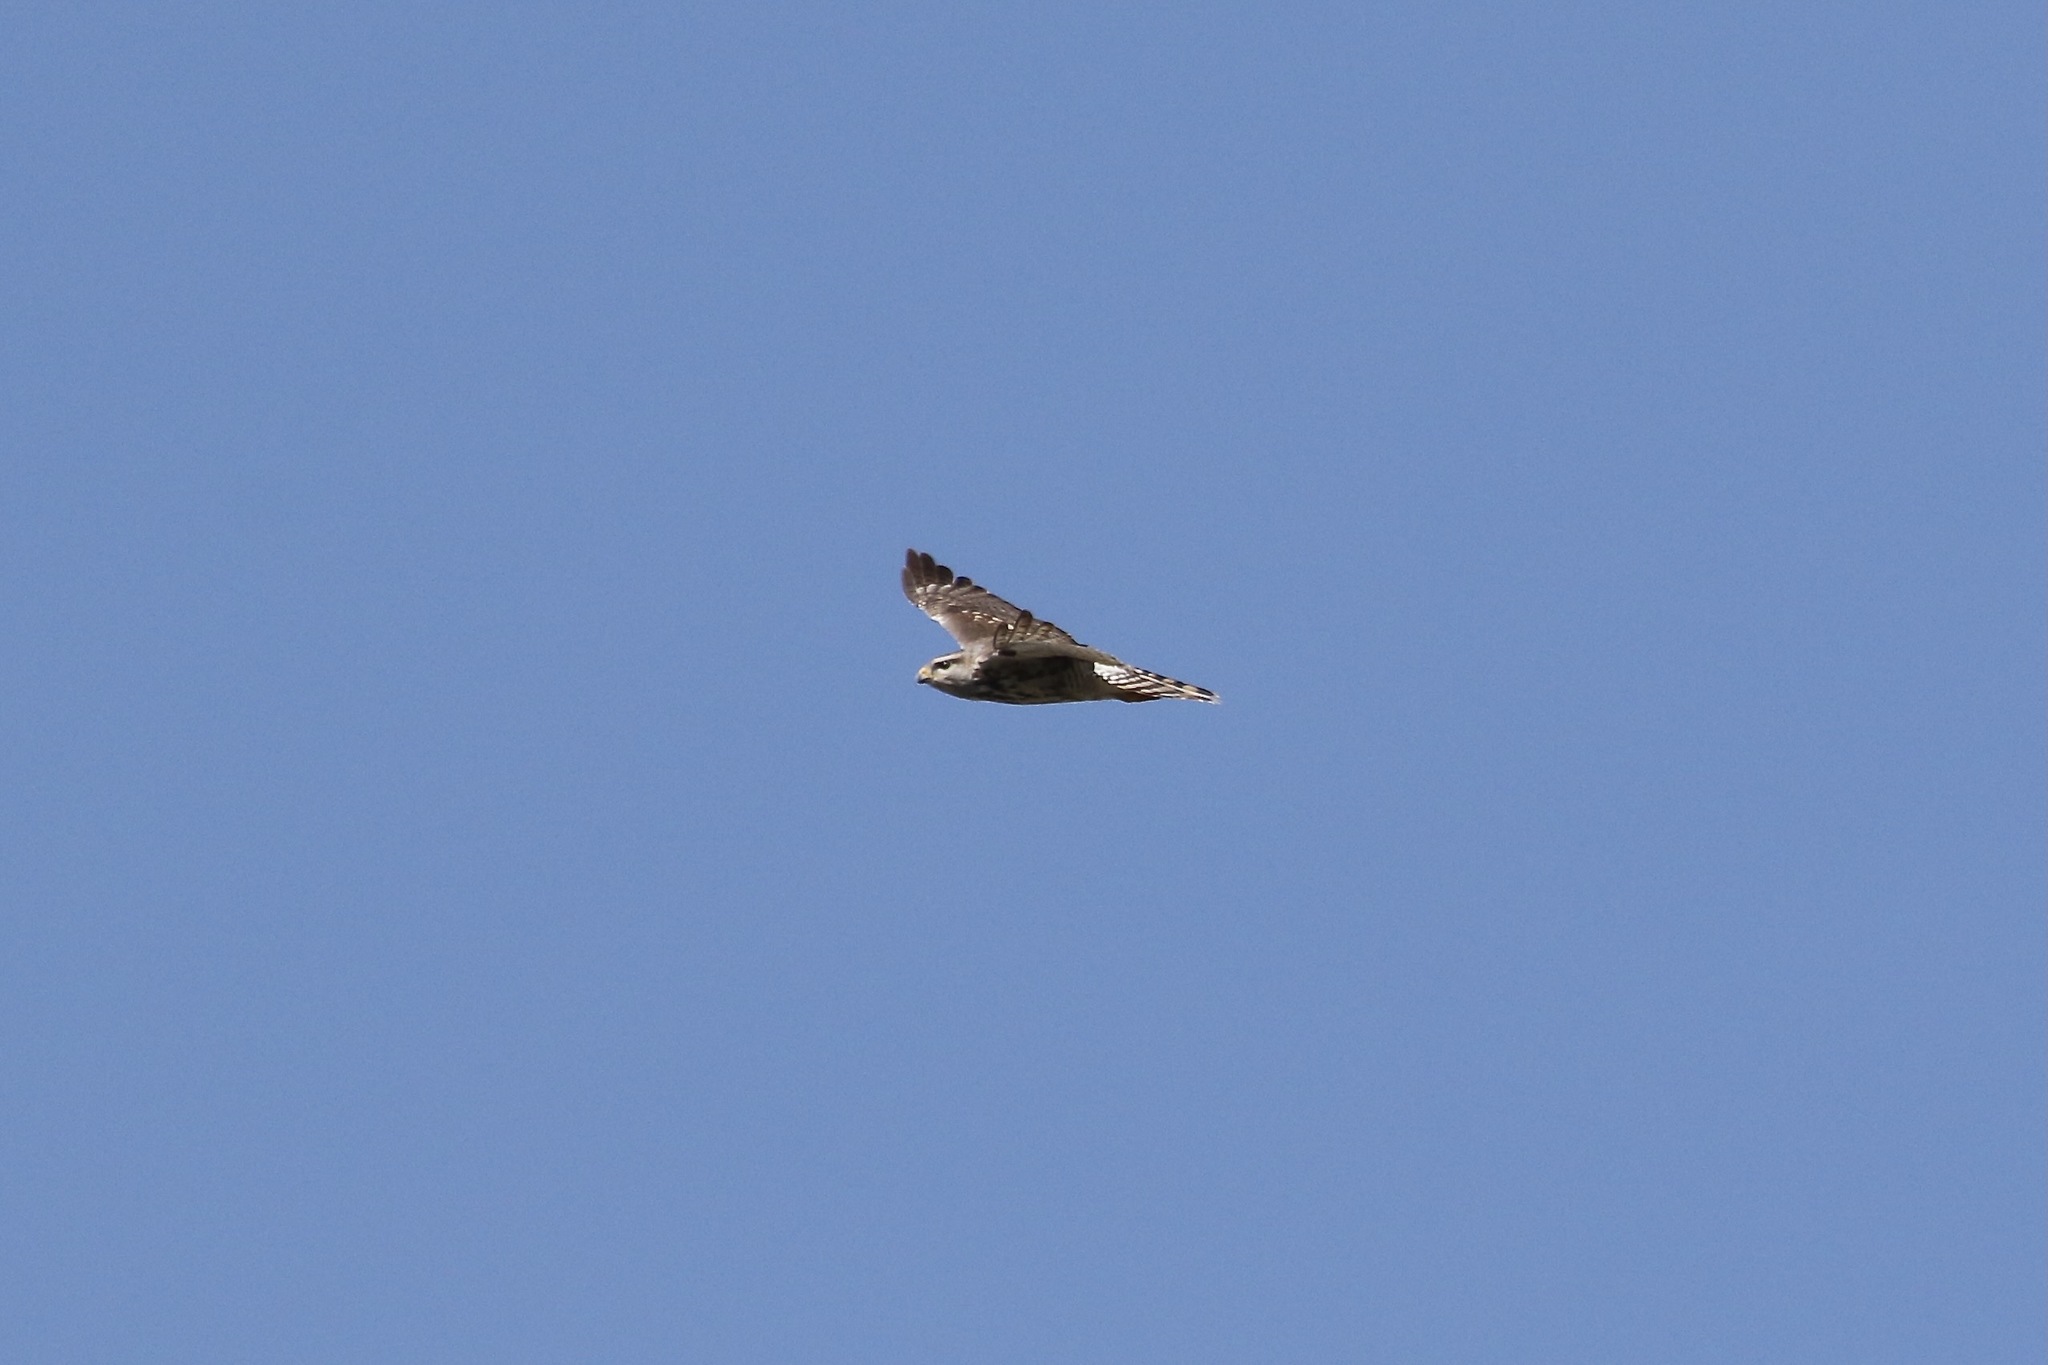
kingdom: Animalia
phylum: Chordata
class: Aves
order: Accipitriformes
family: Accipitridae
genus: Buteo
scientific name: Buteo nitidus
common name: Grey-lined hawk
